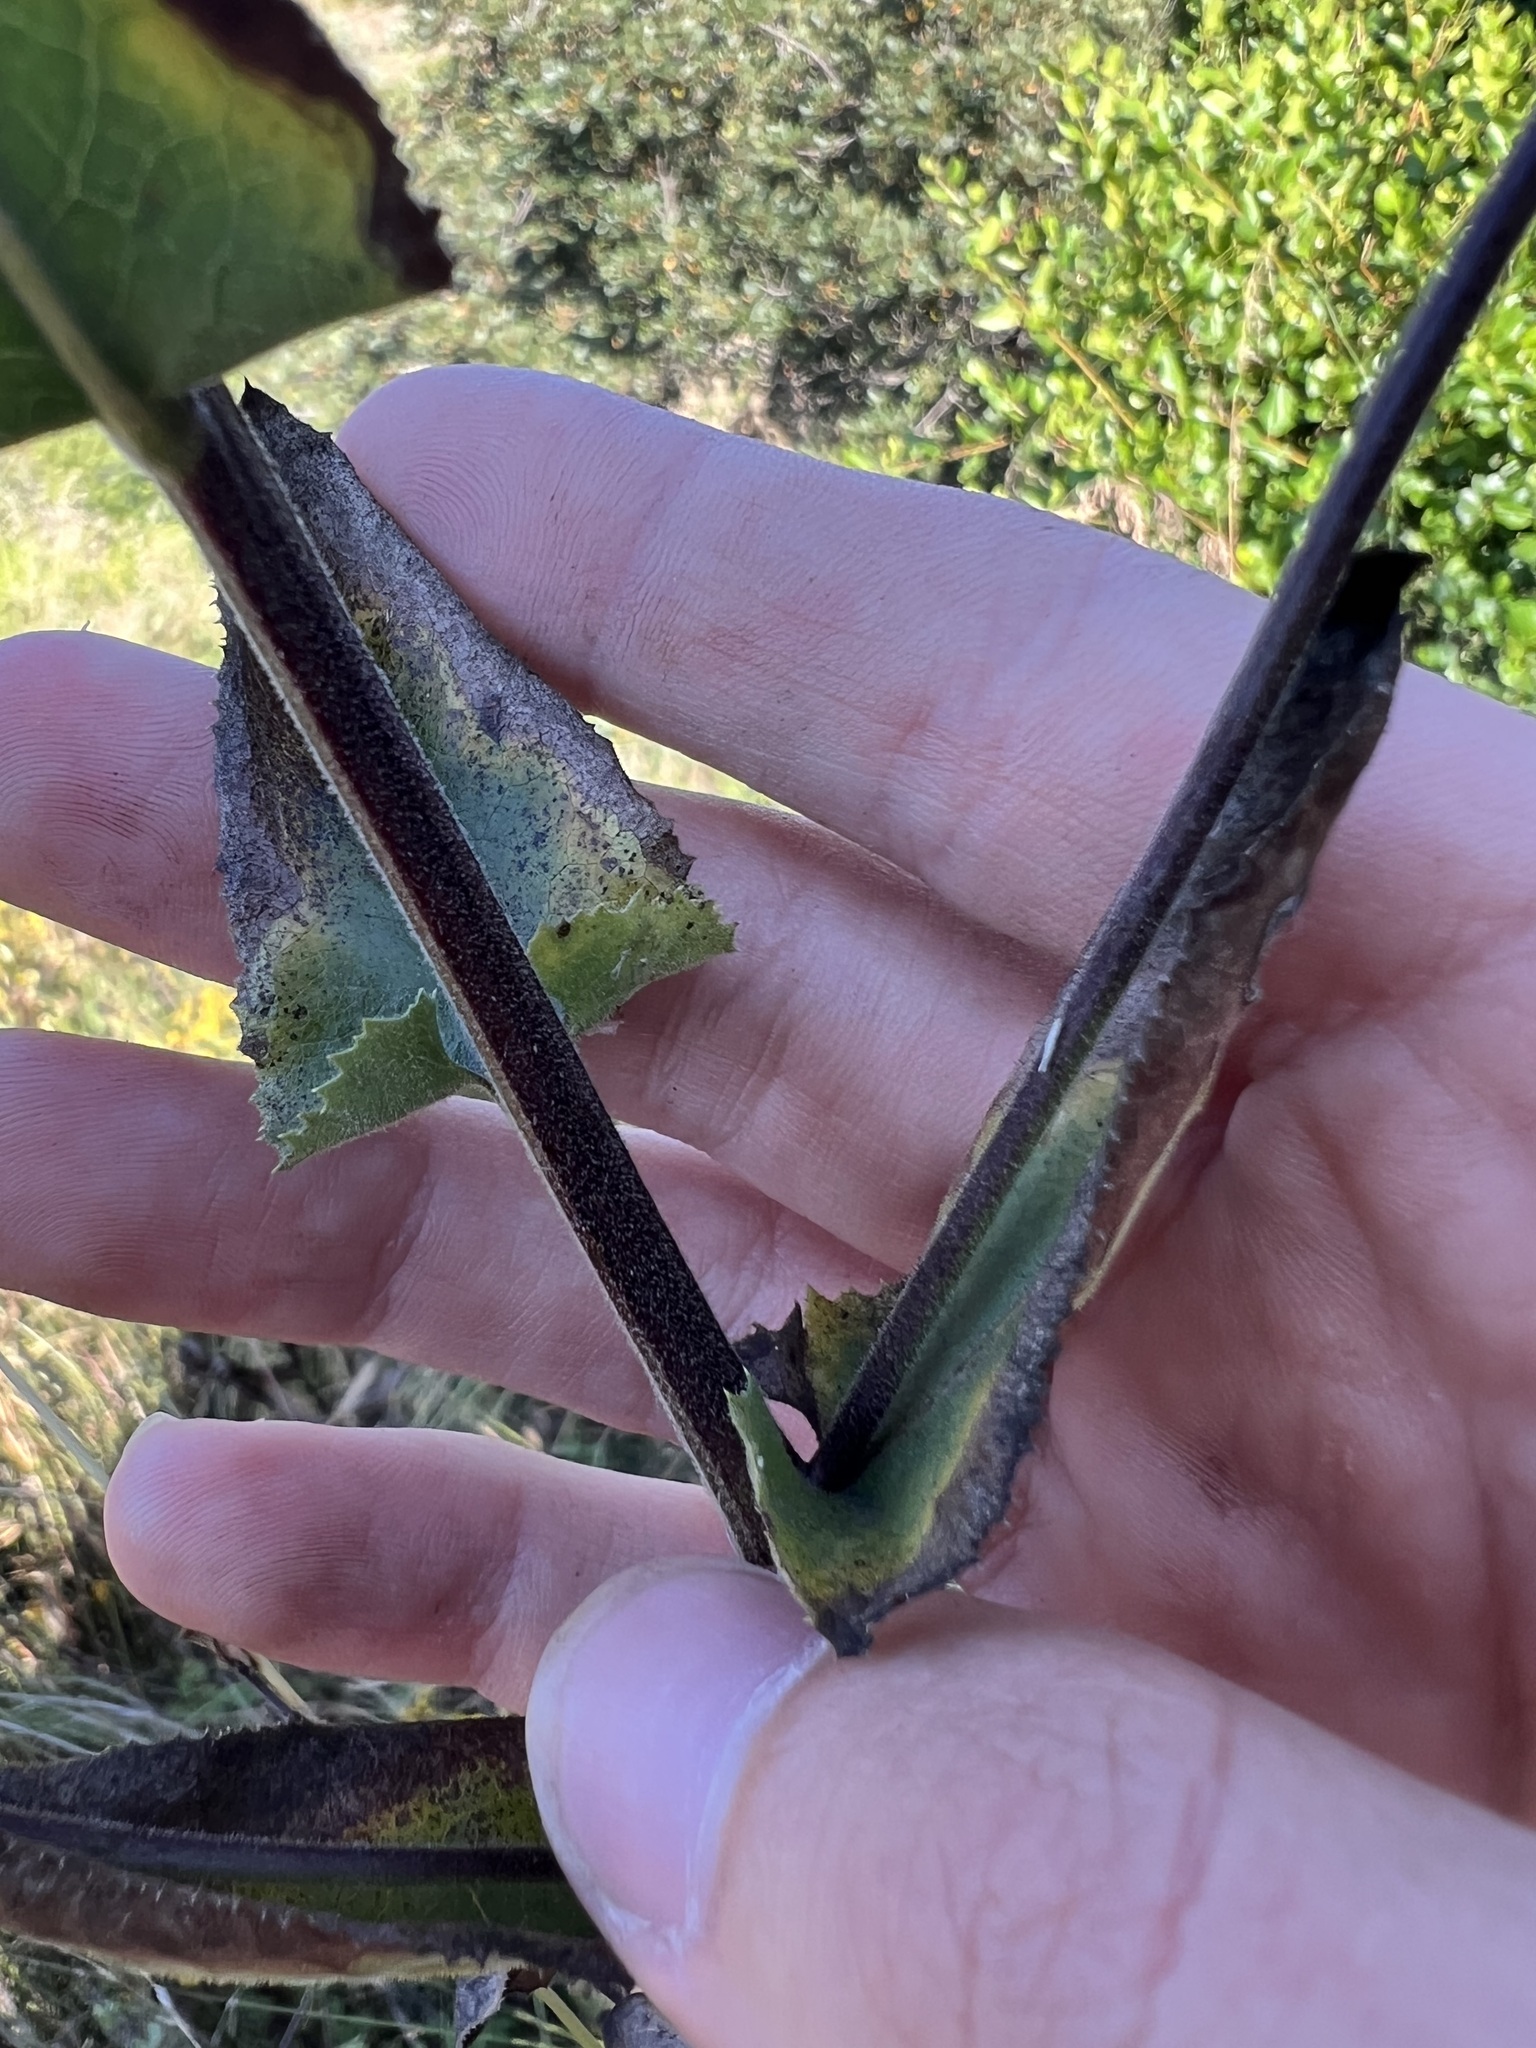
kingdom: Plantae
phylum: Tracheophyta
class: Magnoliopsida
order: Asterales
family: Asteraceae
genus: Acourtia
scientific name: Acourtia microcephala
